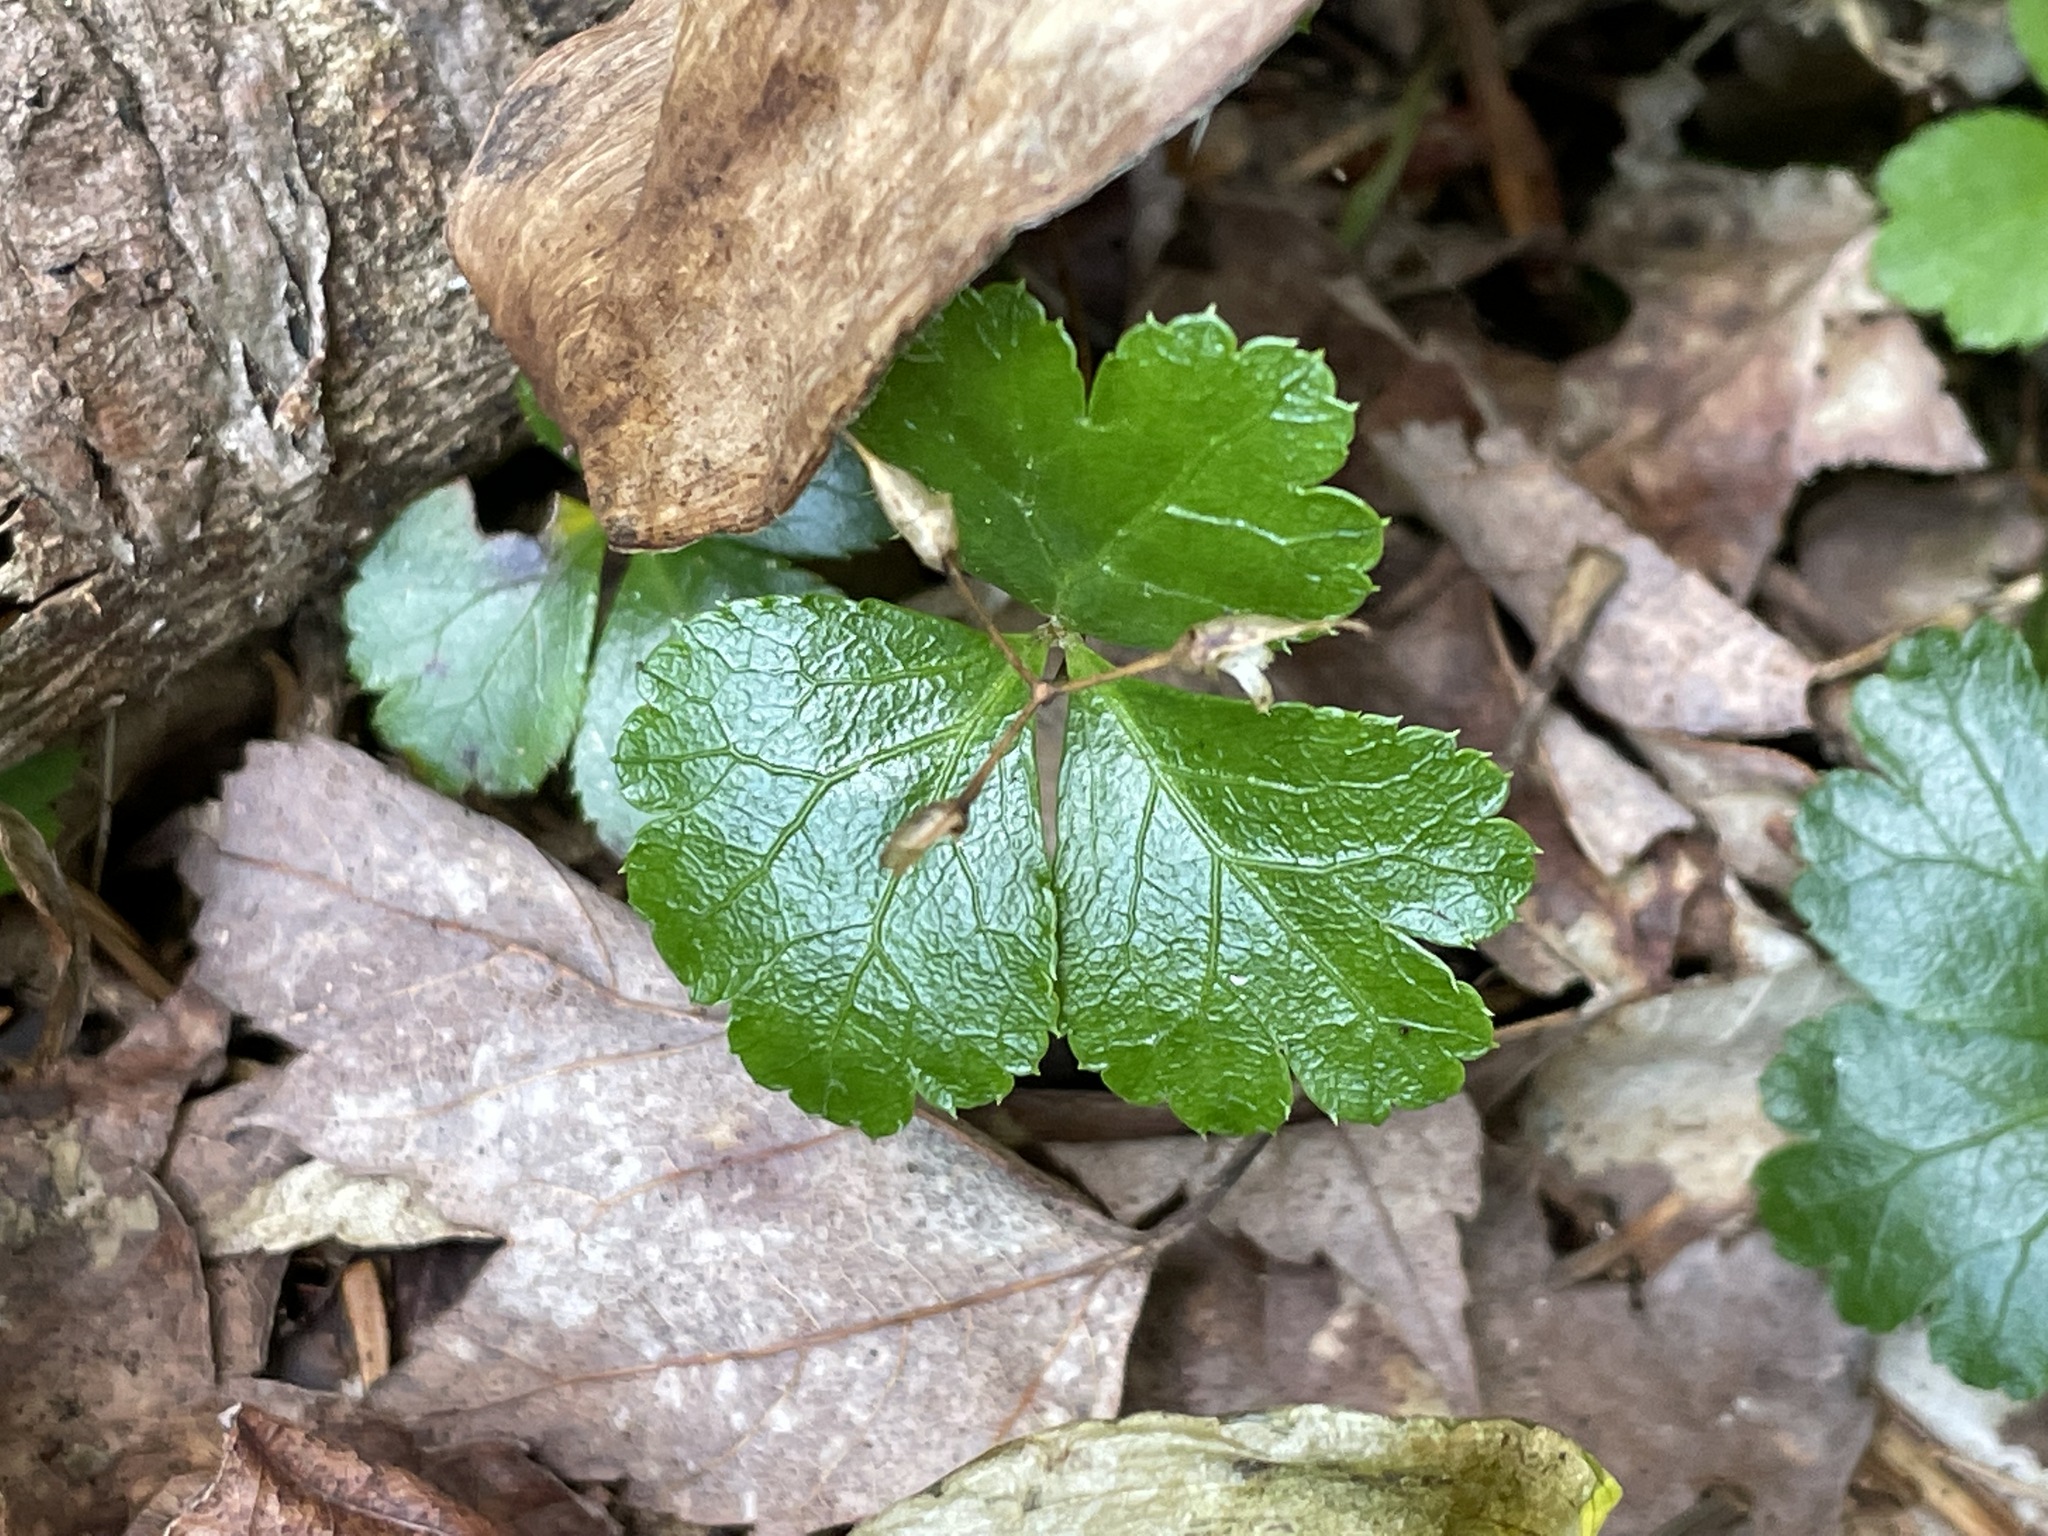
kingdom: Plantae
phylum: Tracheophyta
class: Magnoliopsida
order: Ranunculales
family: Ranunculaceae
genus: Coptis
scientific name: Coptis trifolia
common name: Canker-root
